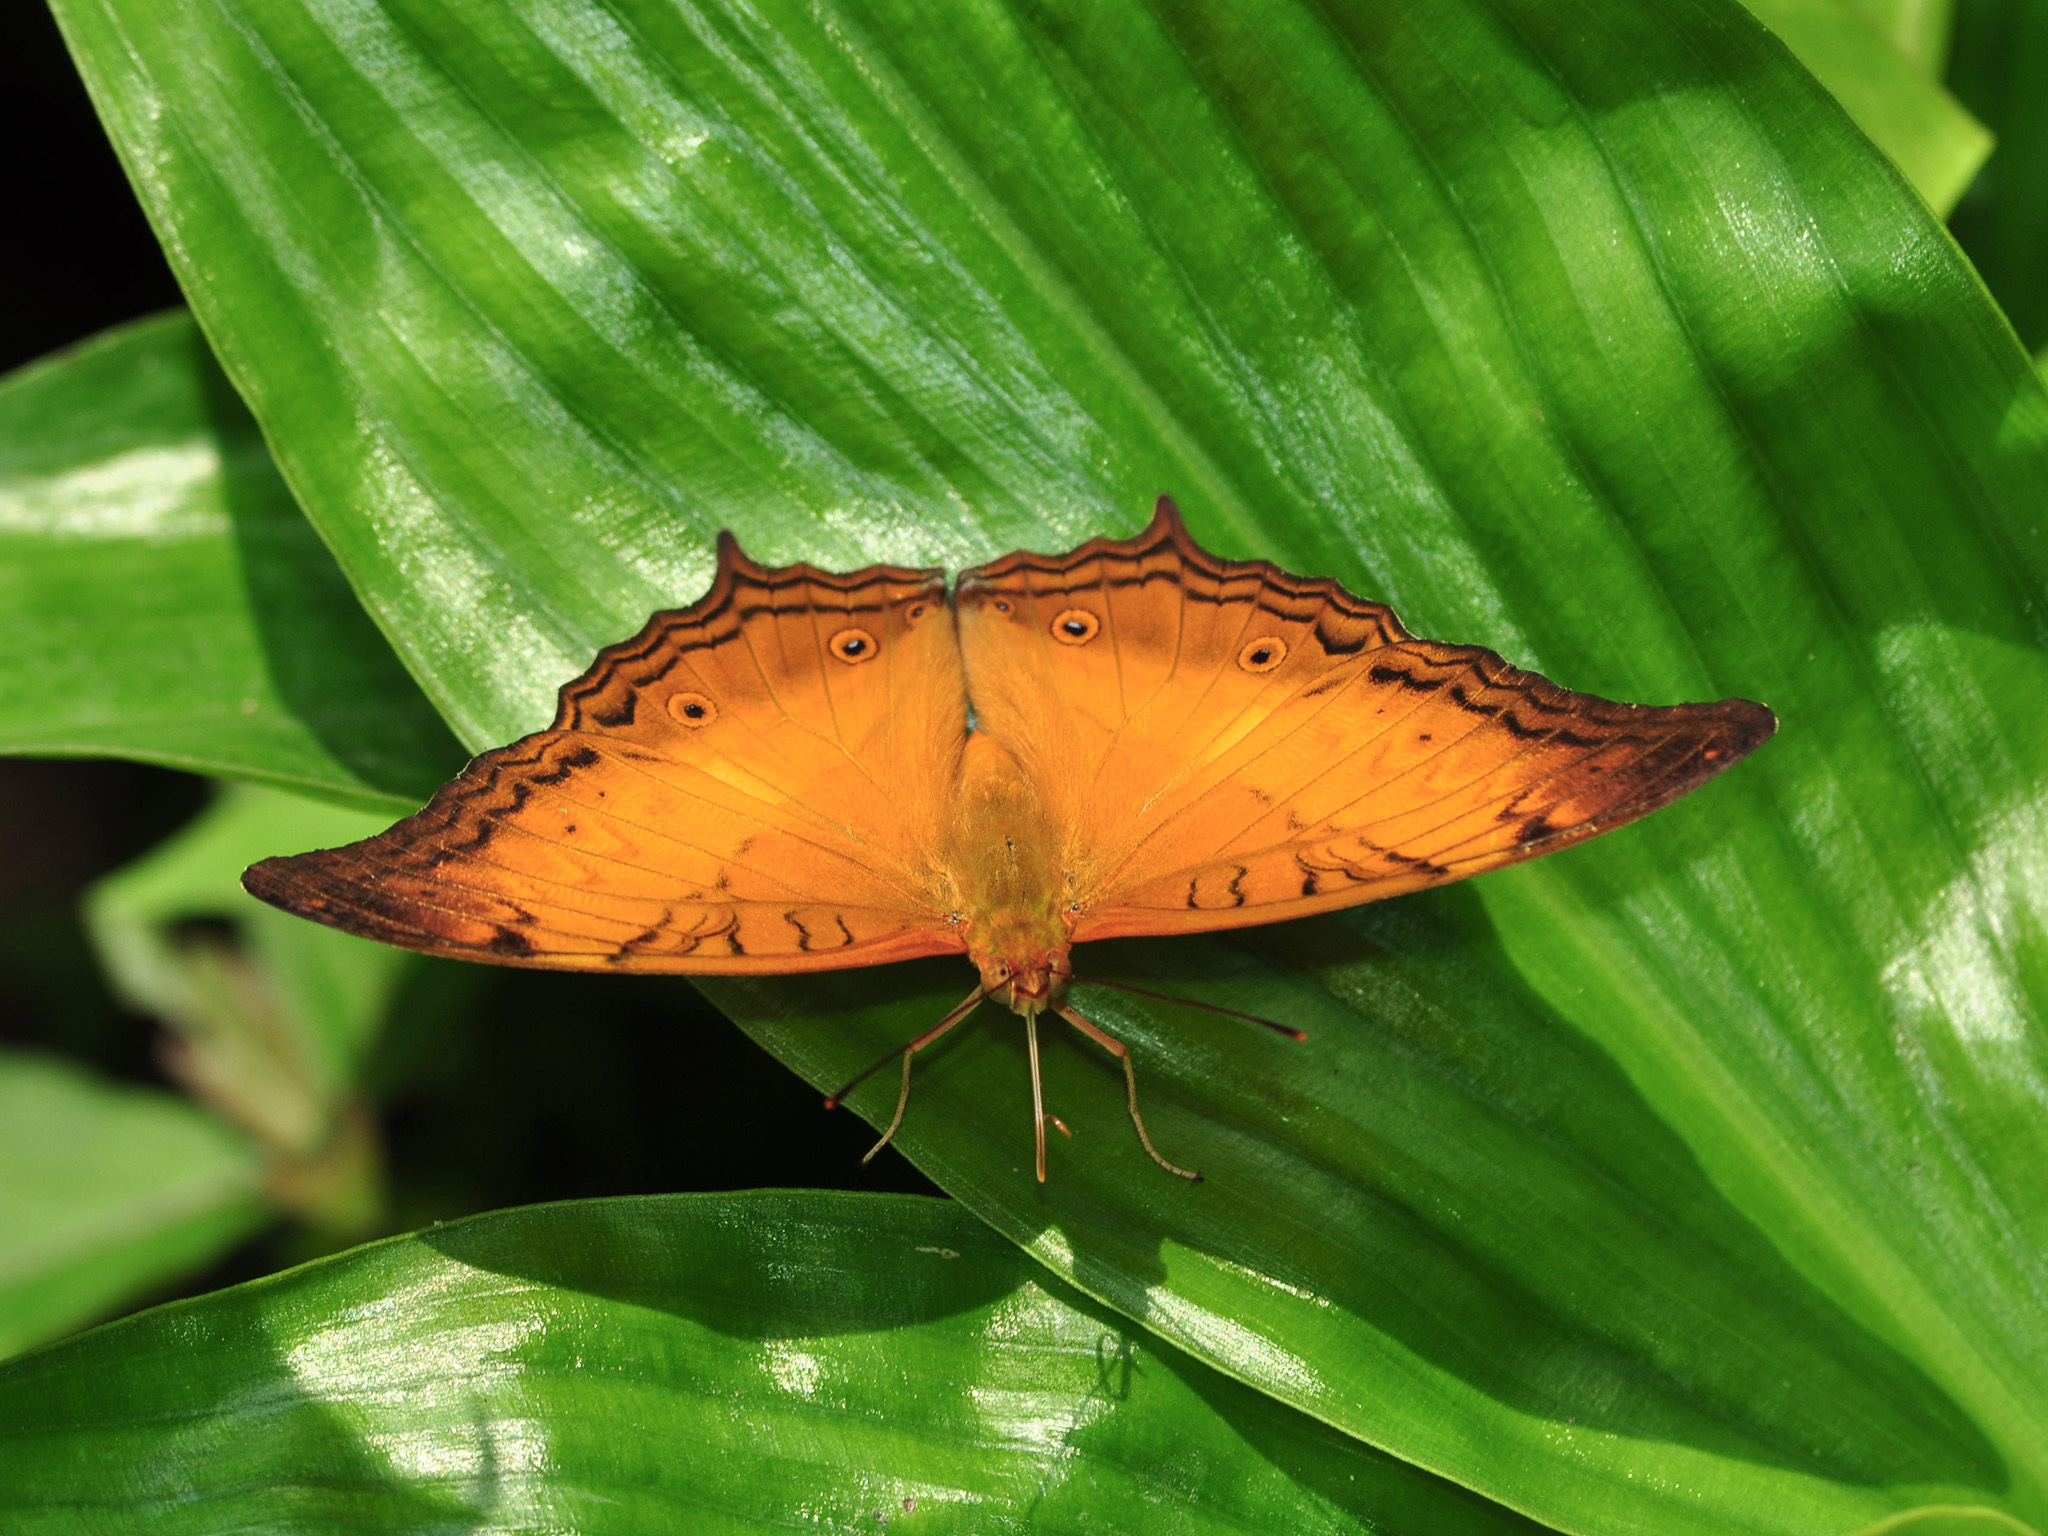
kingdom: Animalia
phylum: Arthropoda
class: Insecta
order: Lepidoptera
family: Nymphalidae
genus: Vindula
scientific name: Vindula deione
